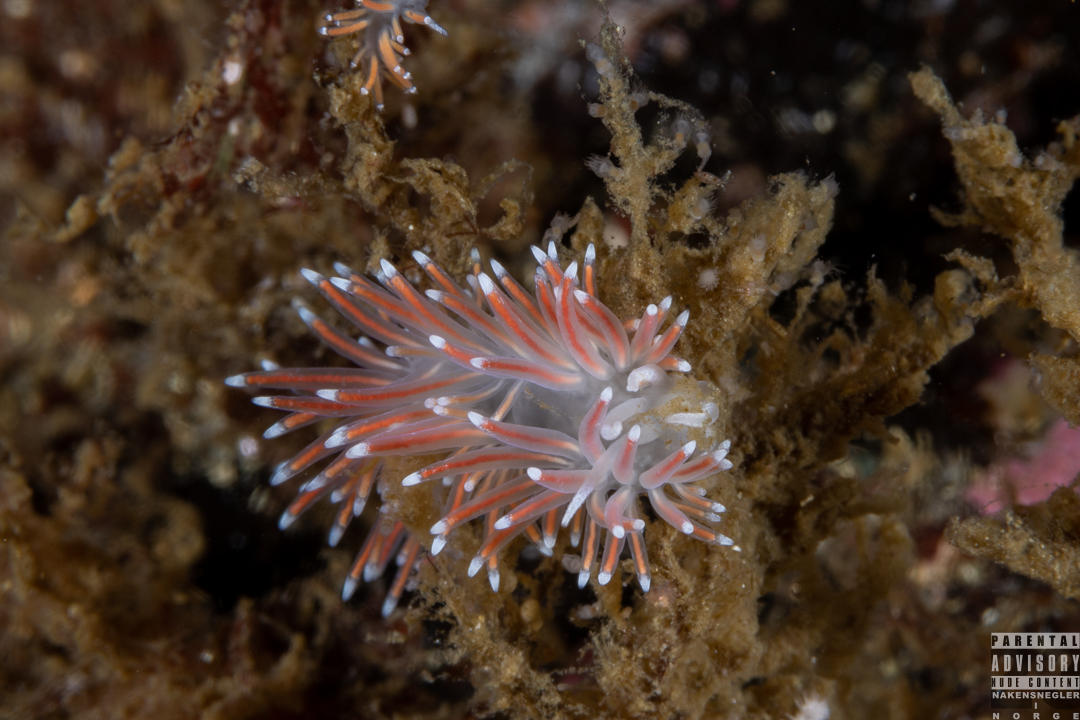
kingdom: Animalia
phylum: Mollusca
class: Gastropoda
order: Nudibranchia
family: Flabellinidae
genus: Carronella
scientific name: Carronella pellucida
